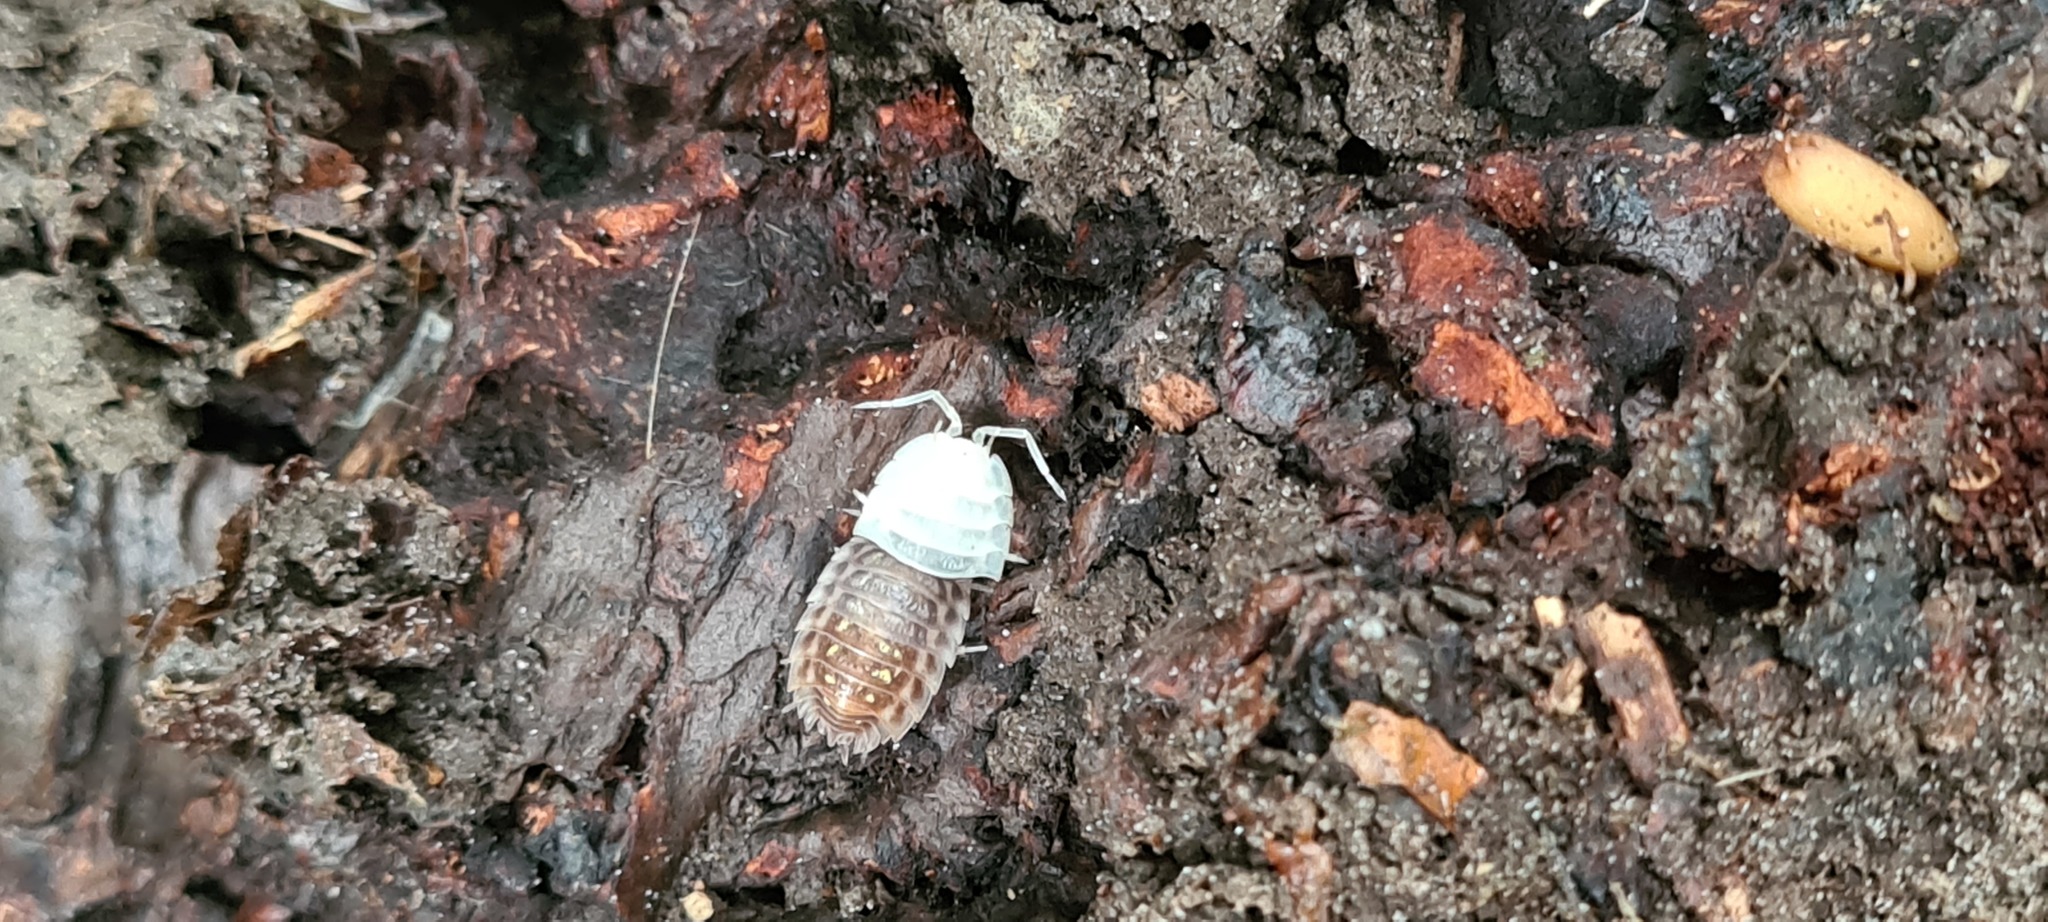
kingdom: Animalia
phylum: Arthropoda
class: Malacostraca
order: Isopoda
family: Oniscidae
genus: Oniscus
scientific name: Oniscus asellus
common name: Common shiny woodlouse
